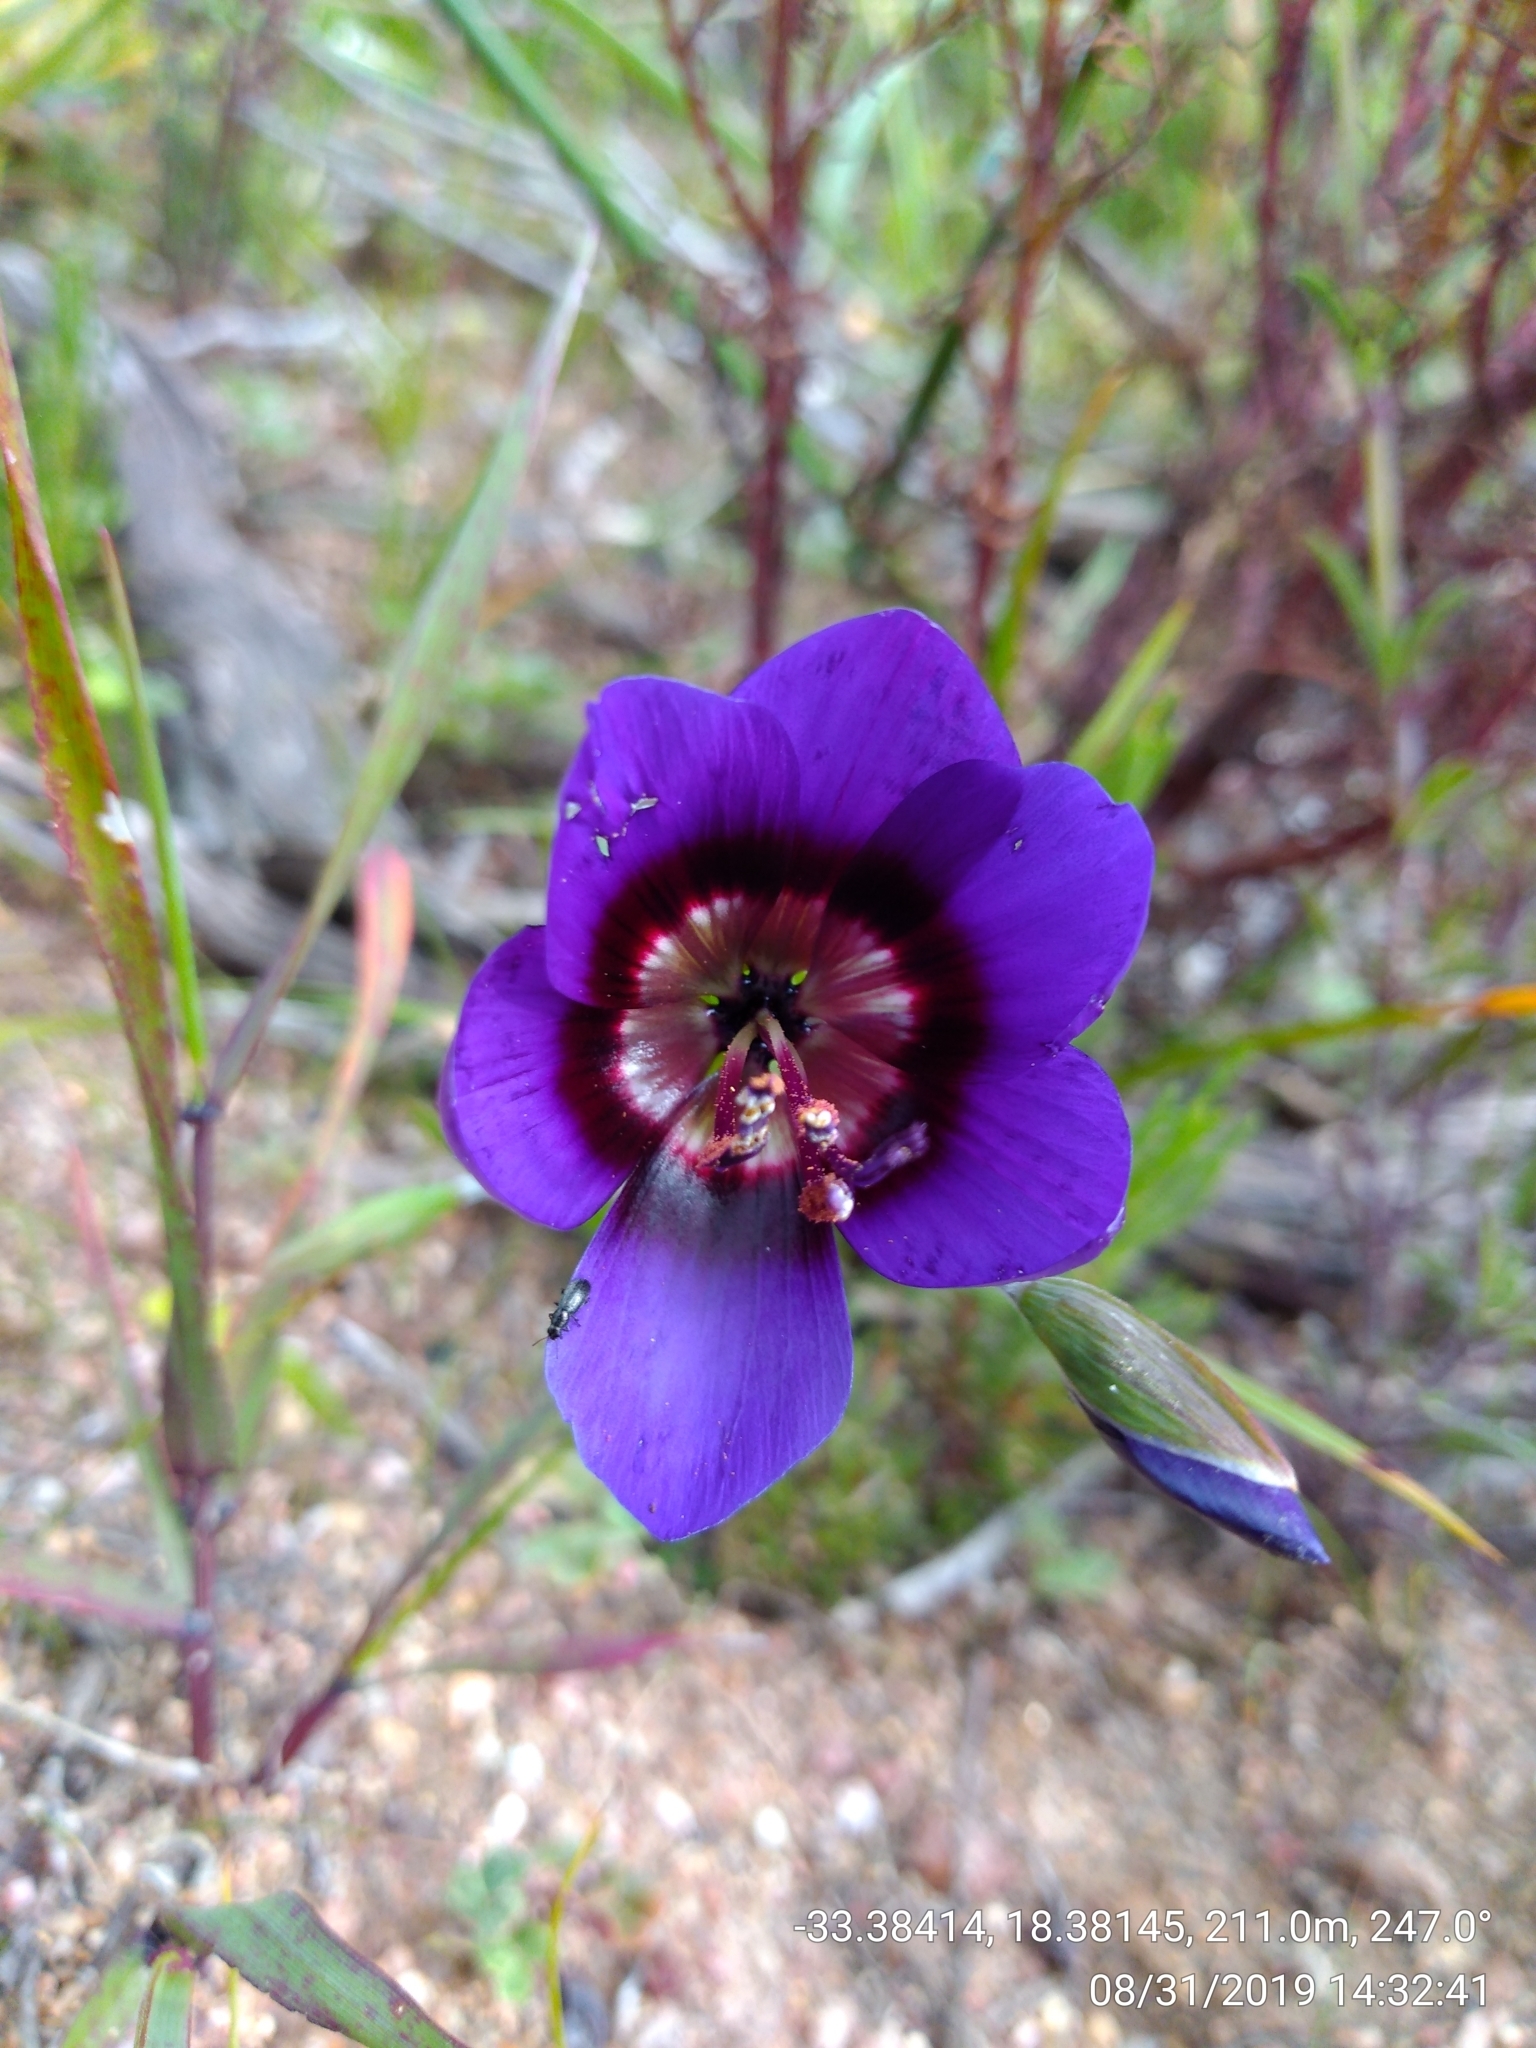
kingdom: Plantae
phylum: Tracheophyta
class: Liliopsida
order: Asparagales
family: Iridaceae
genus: Geissorhiza
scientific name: Geissorhiza monanthos
